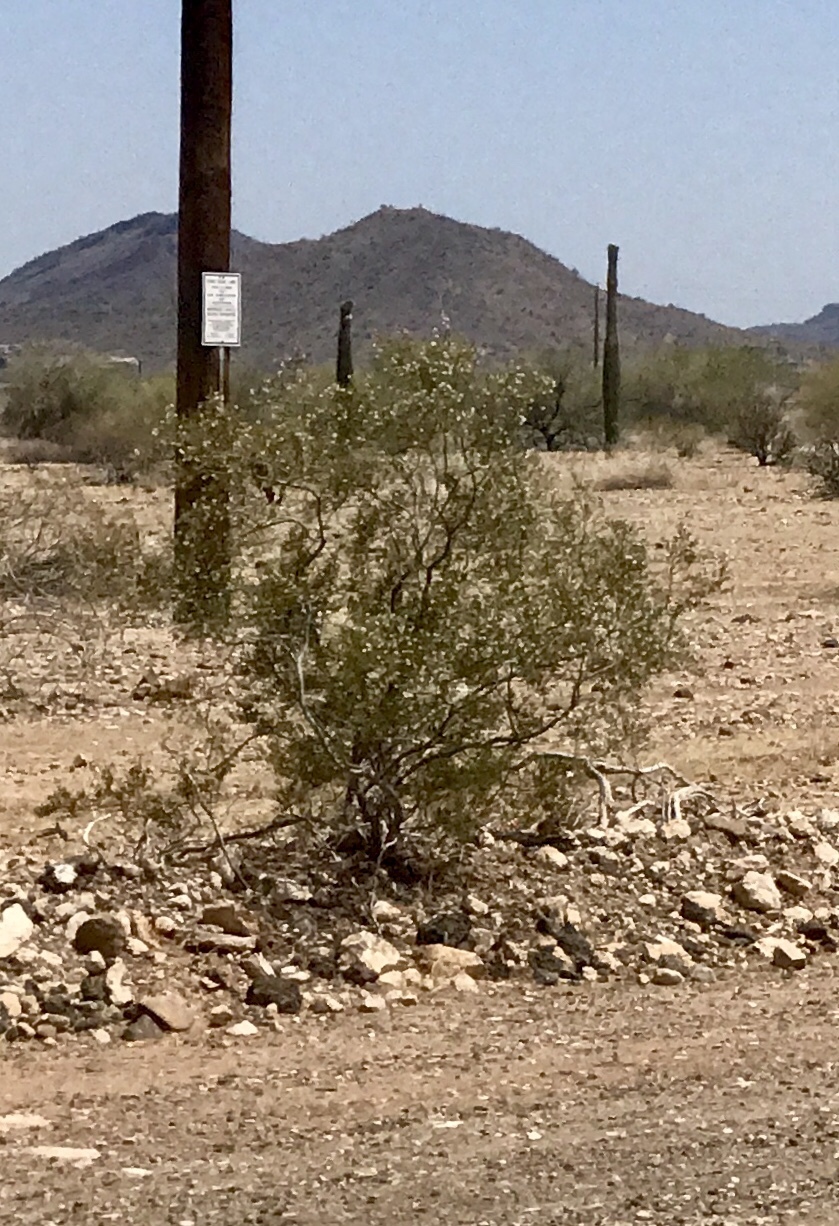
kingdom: Plantae
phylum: Tracheophyta
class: Magnoliopsida
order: Zygophyllales
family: Zygophyllaceae
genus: Larrea
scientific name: Larrea tridentata
